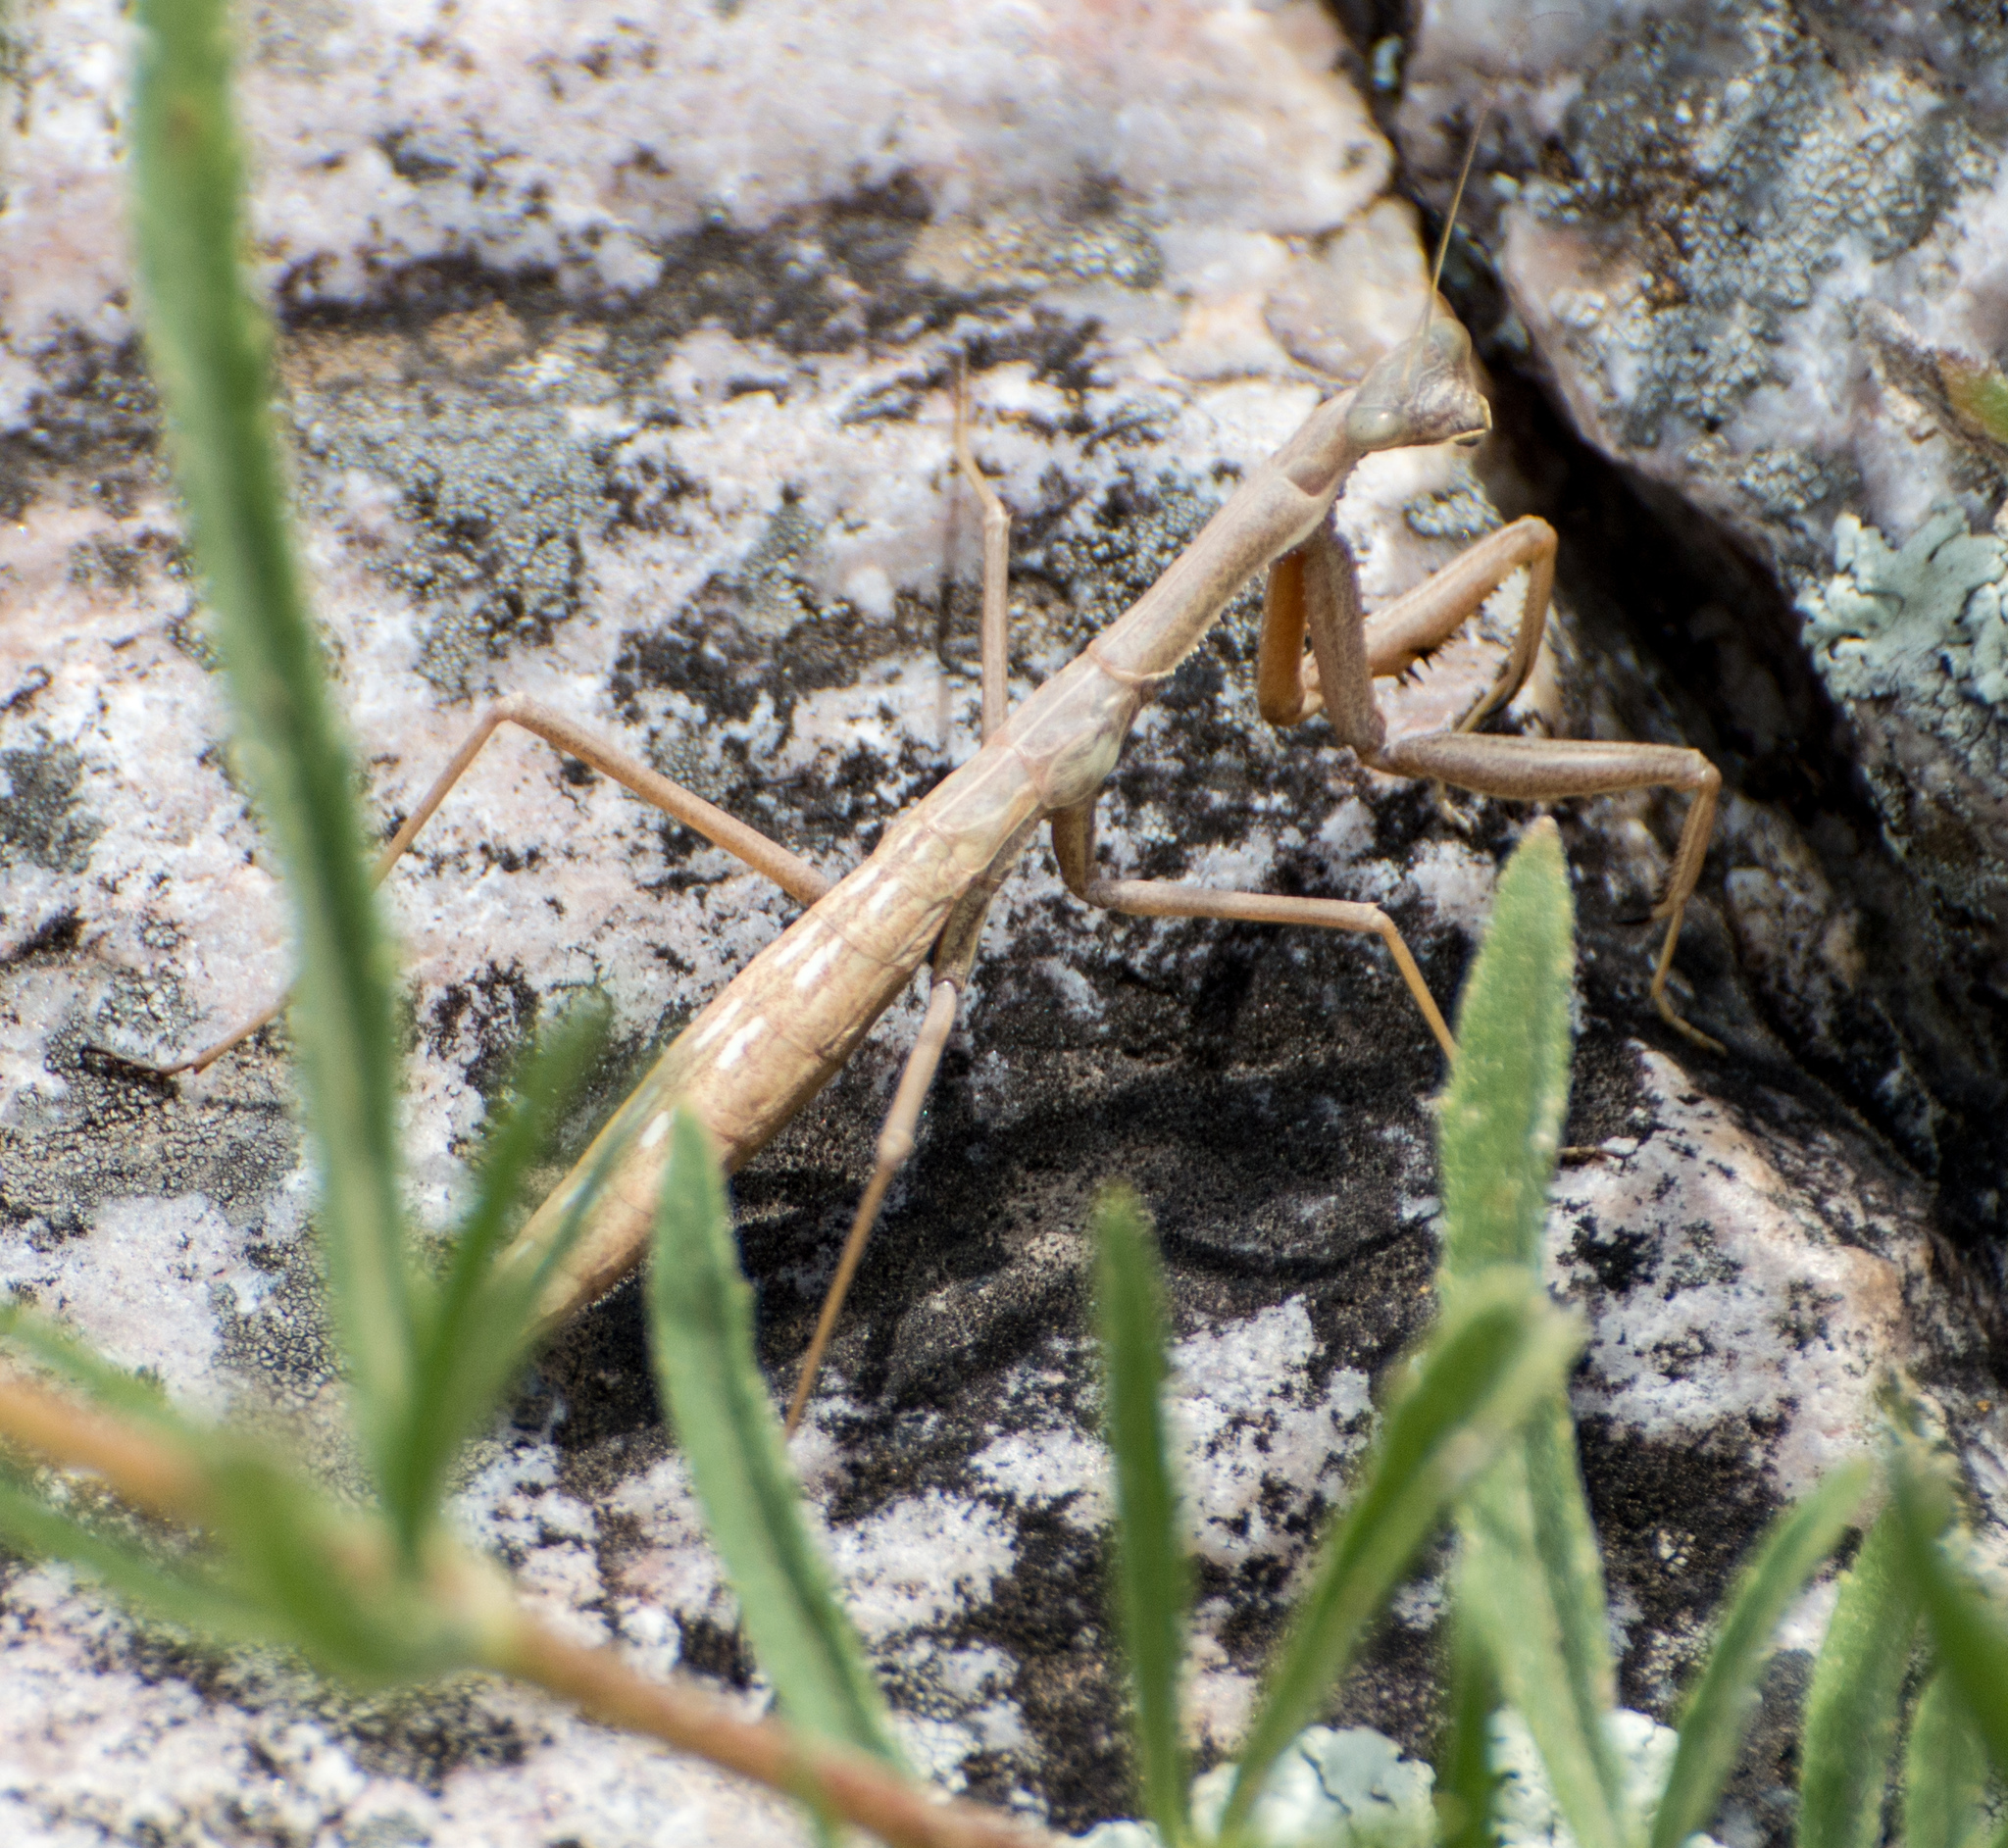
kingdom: Animalia
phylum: Arthropoda
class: Insecta
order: Mantodea
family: Coptopterygidae
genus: Coptopteryx
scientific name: Coptopteryx gayi
